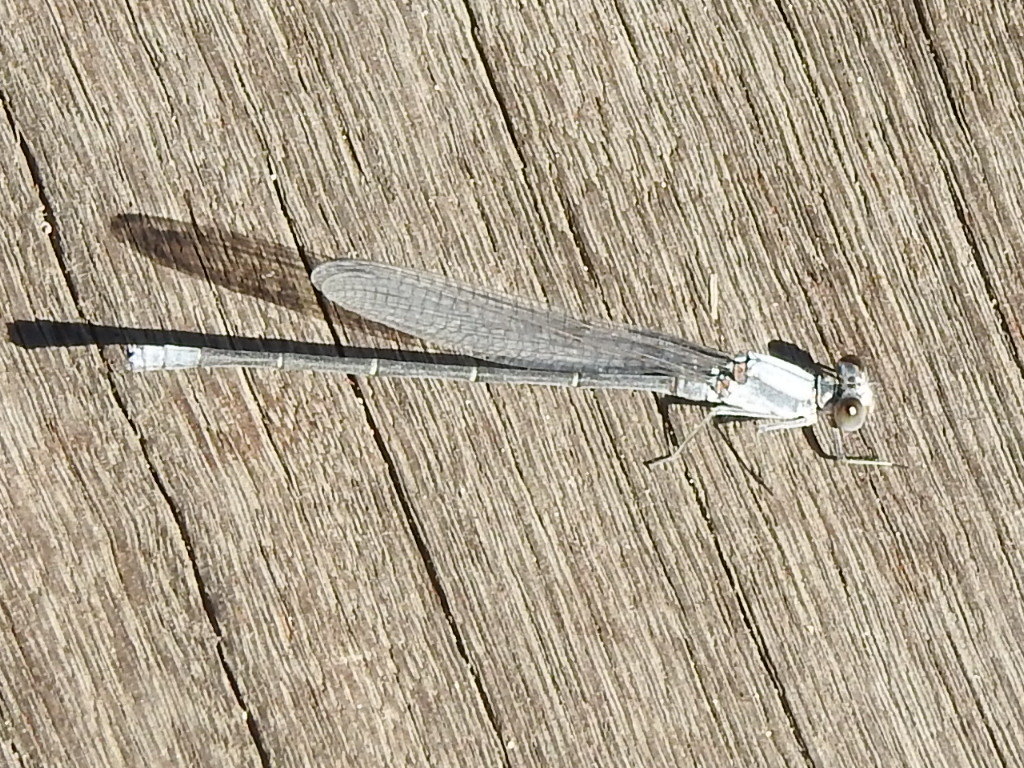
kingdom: Animalia
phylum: Arthropoda
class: Insecta
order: Odonata
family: Coenagrionidae
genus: Argia
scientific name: Argia moesta
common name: Powdered dancer
